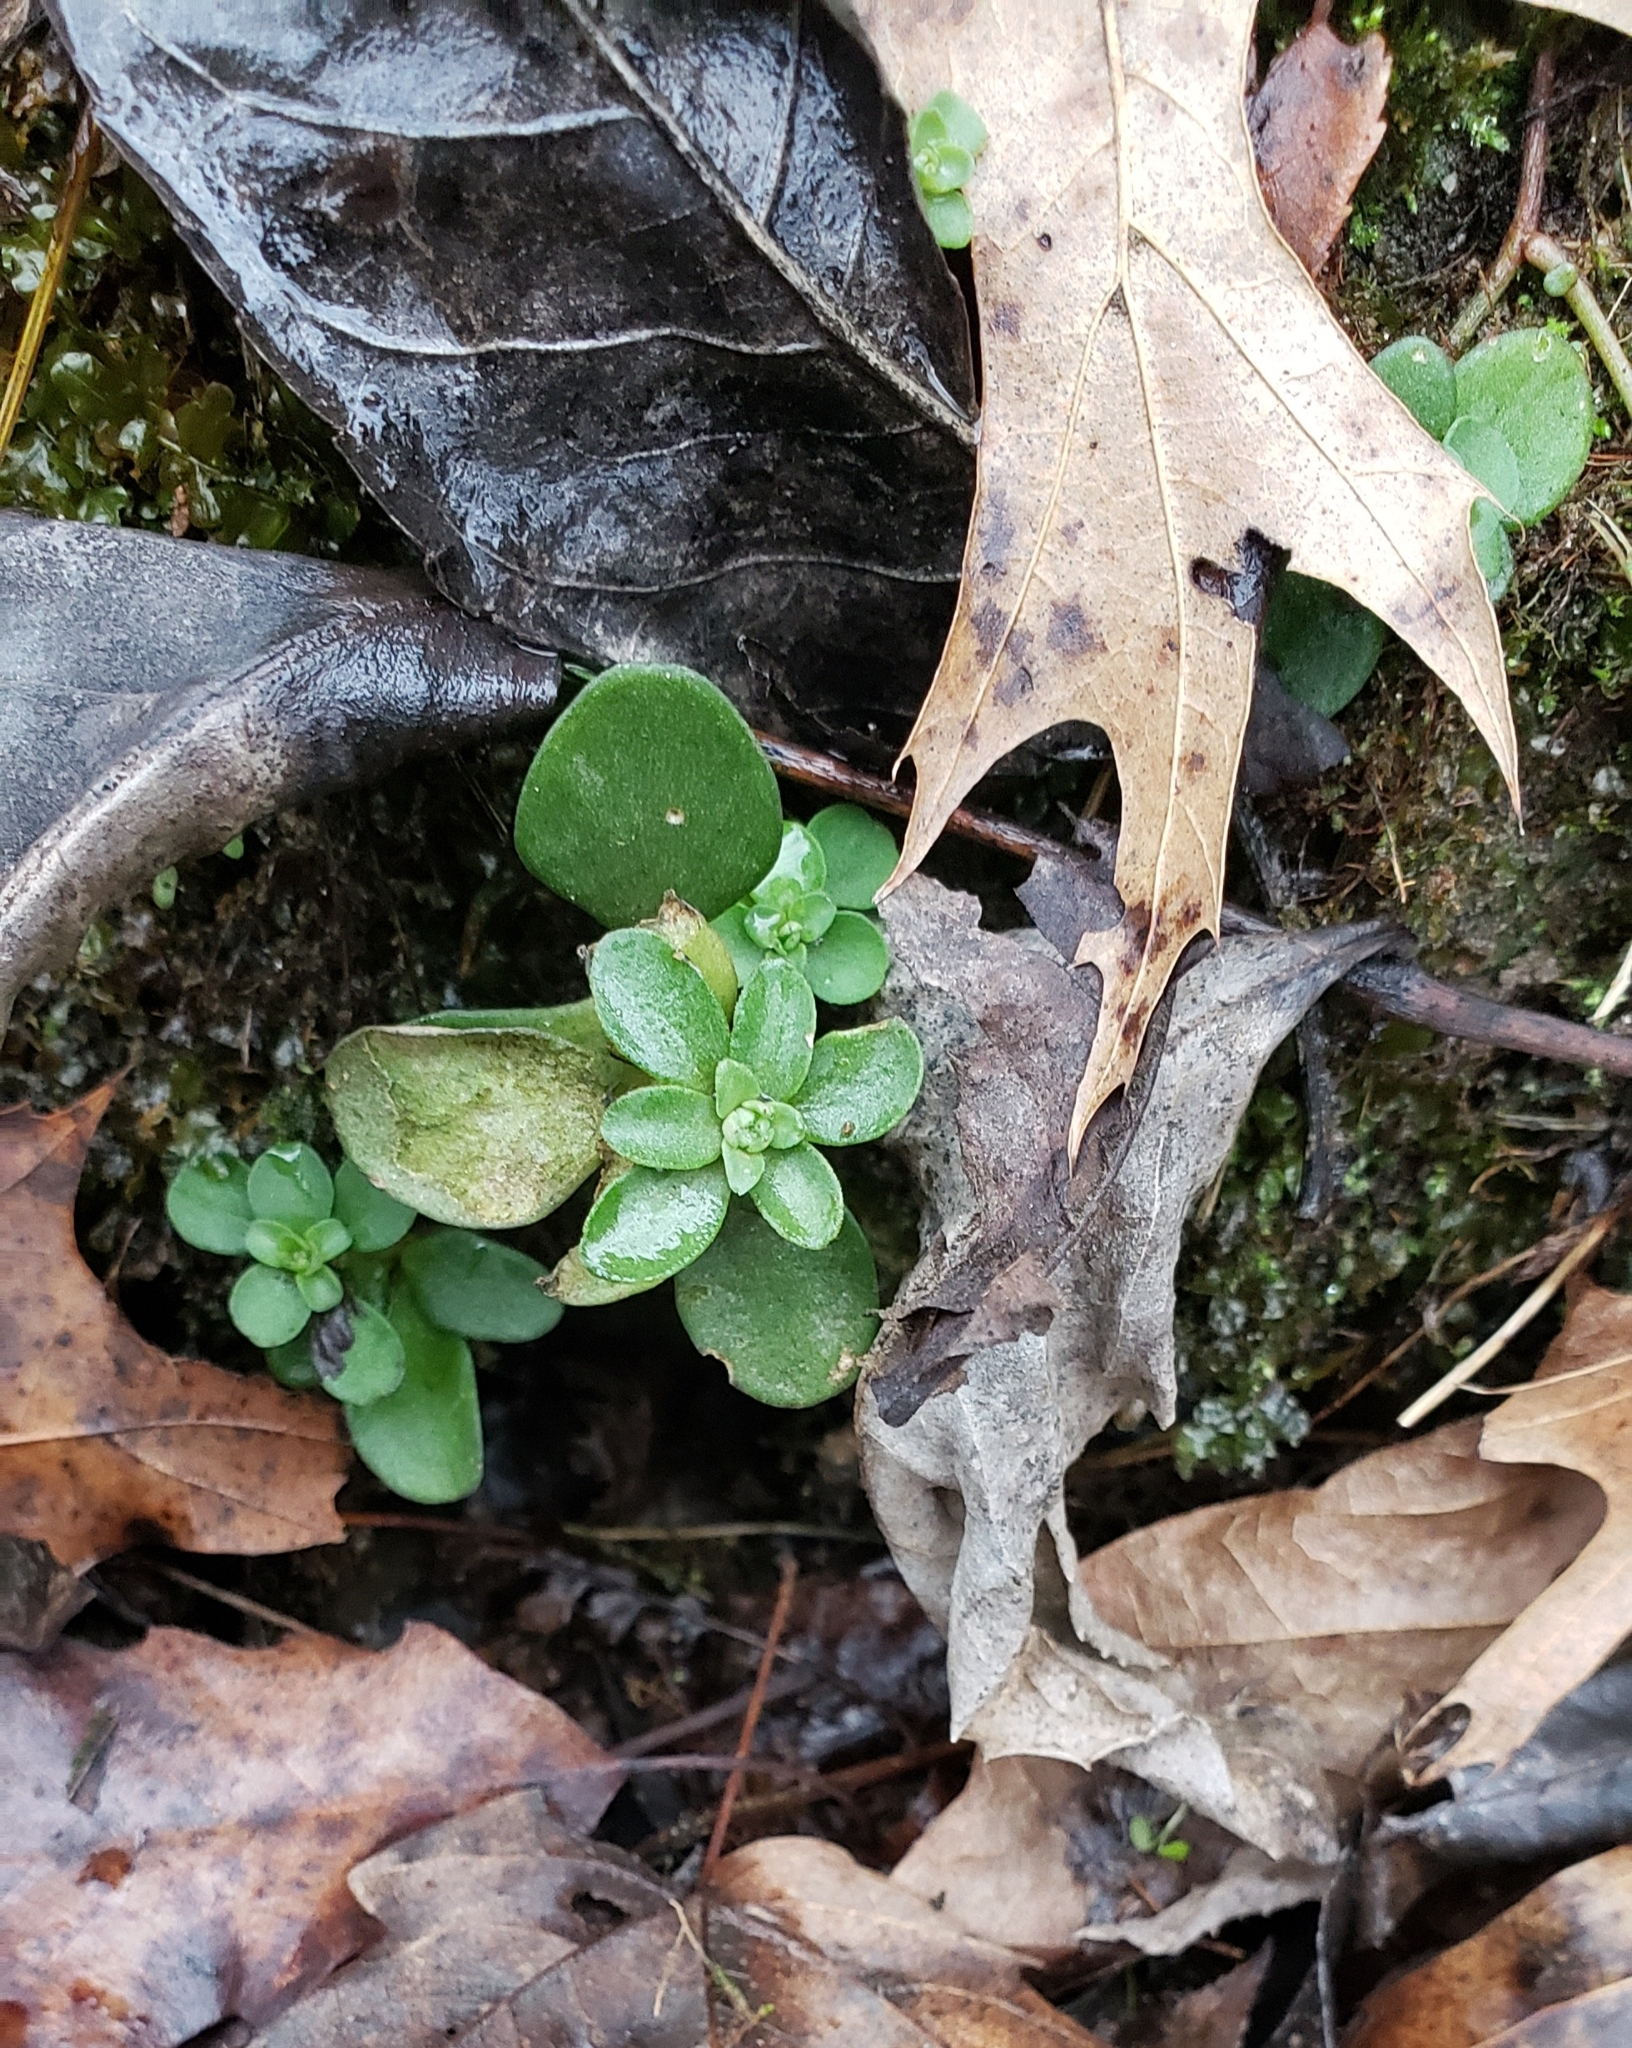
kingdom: Plantae
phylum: Tracheophyta
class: Magnoliopsida
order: Saxifragales
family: Crassulaceae
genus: Sedum
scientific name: Sedum ternatum
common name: Wild stonecrop
